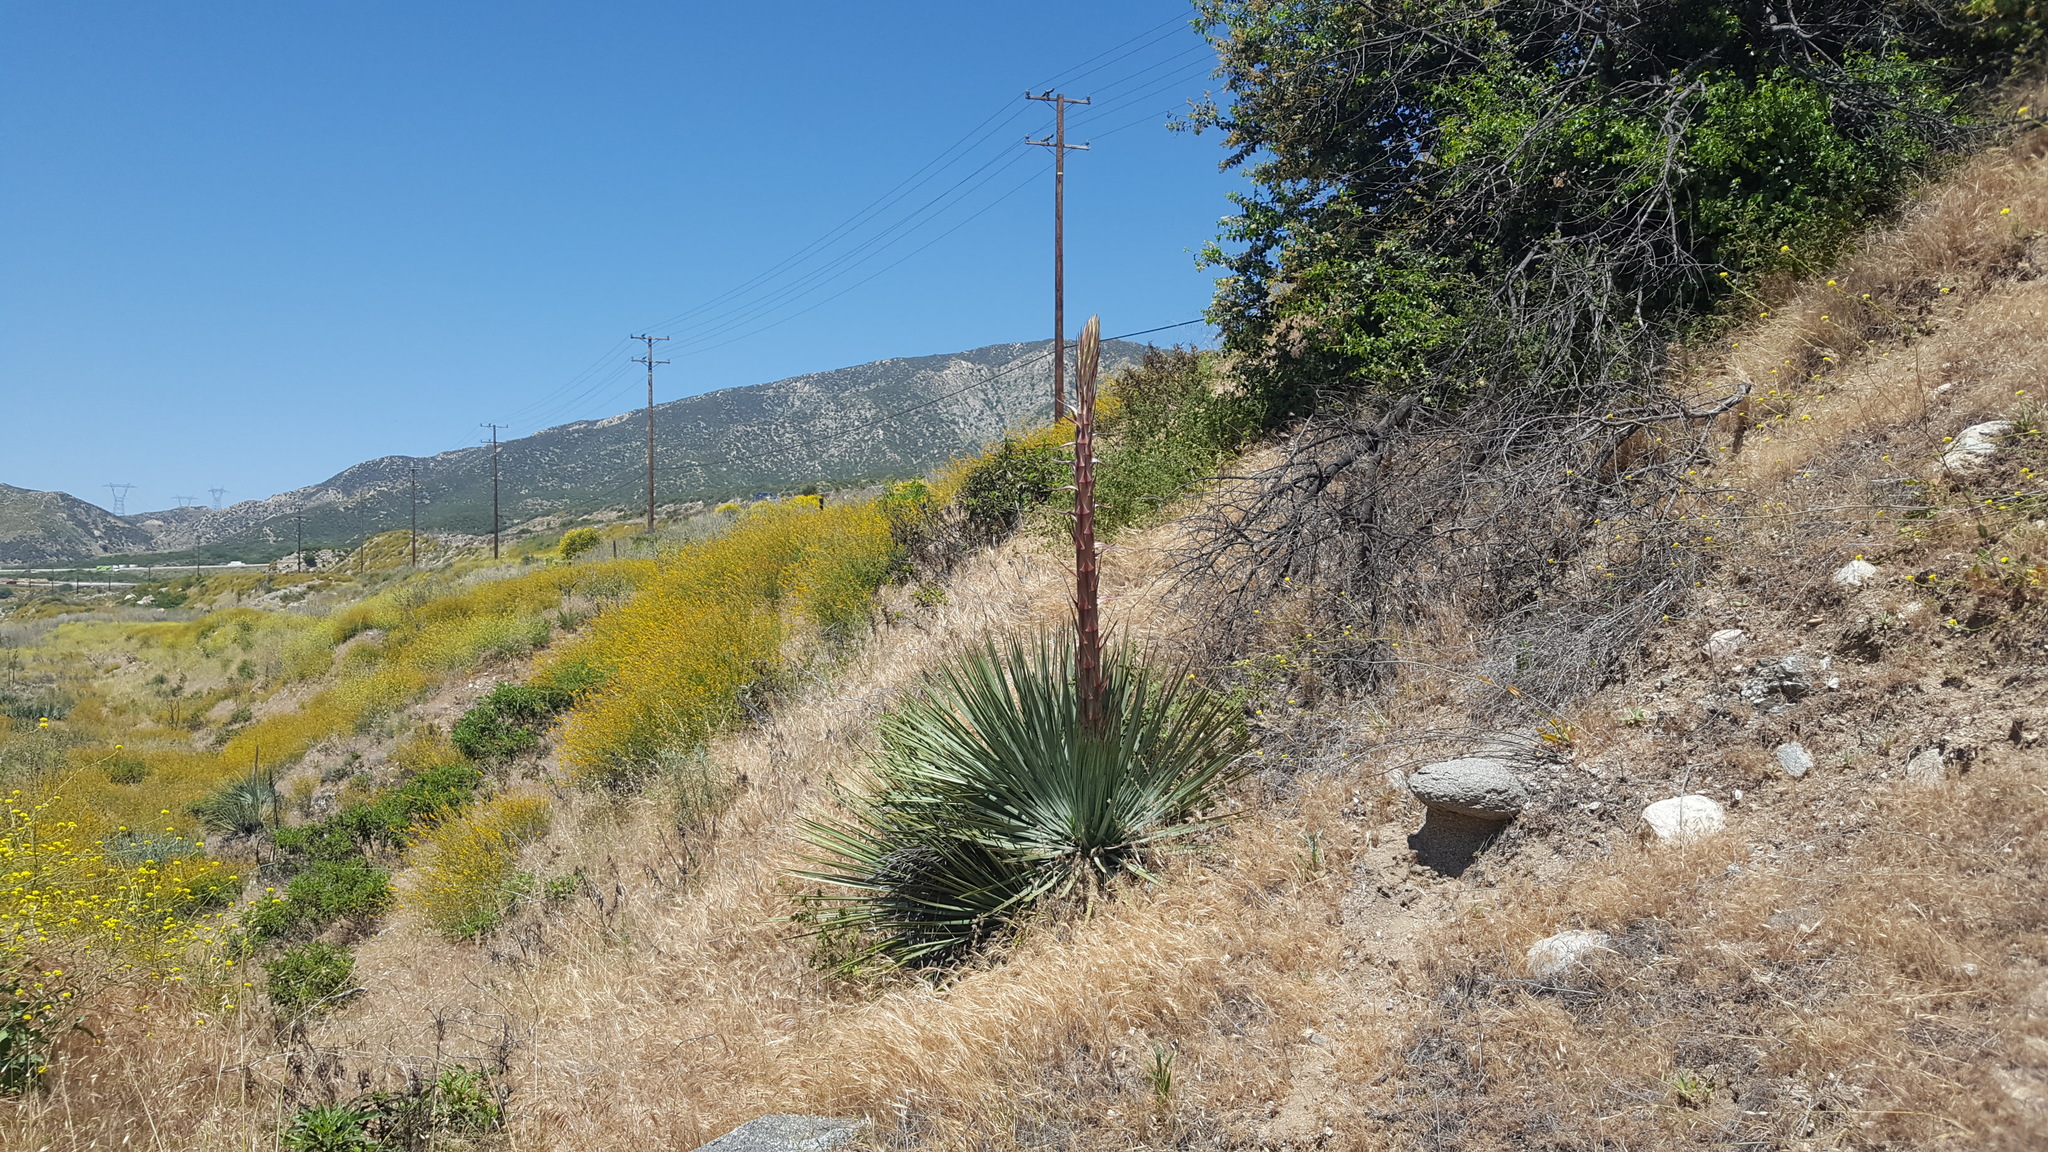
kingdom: Plantae
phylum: Tracheophyta
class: Liliopsida
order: Asparagales
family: Asparagaceae
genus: Hesperoyucca
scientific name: Hesperoyucca whipplei
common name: Our lord's-candle
